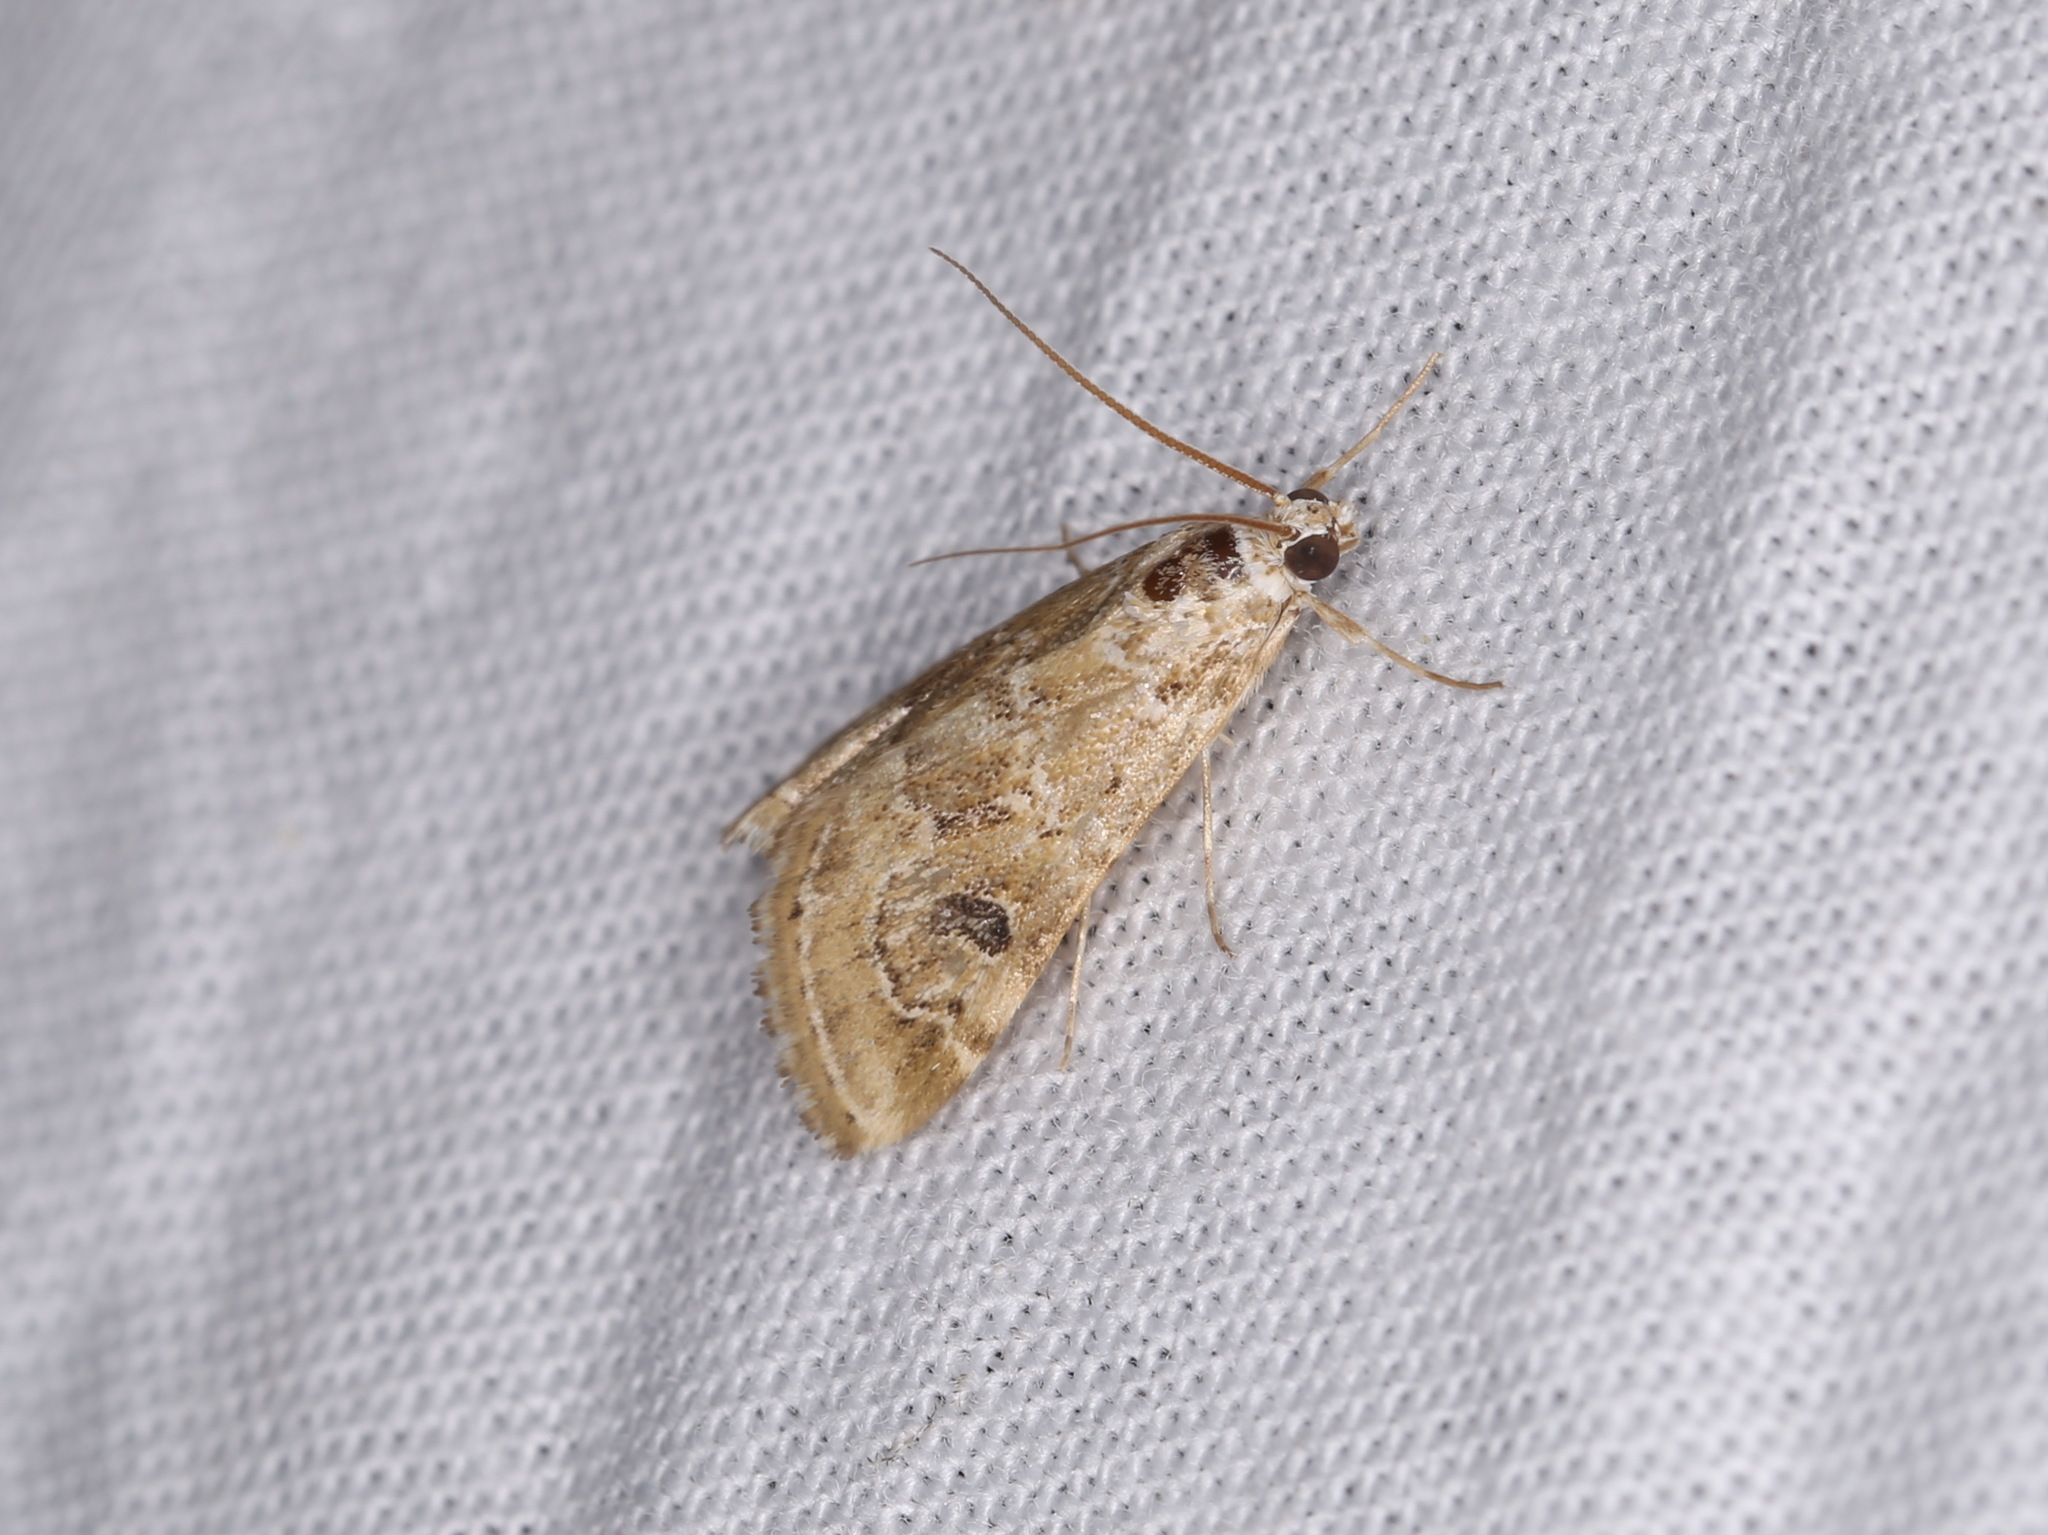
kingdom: Animalia
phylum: Arthropoda
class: Insecta
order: Lepidoptera
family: Crambidae
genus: Hellula
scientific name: Hellula rogatalis
